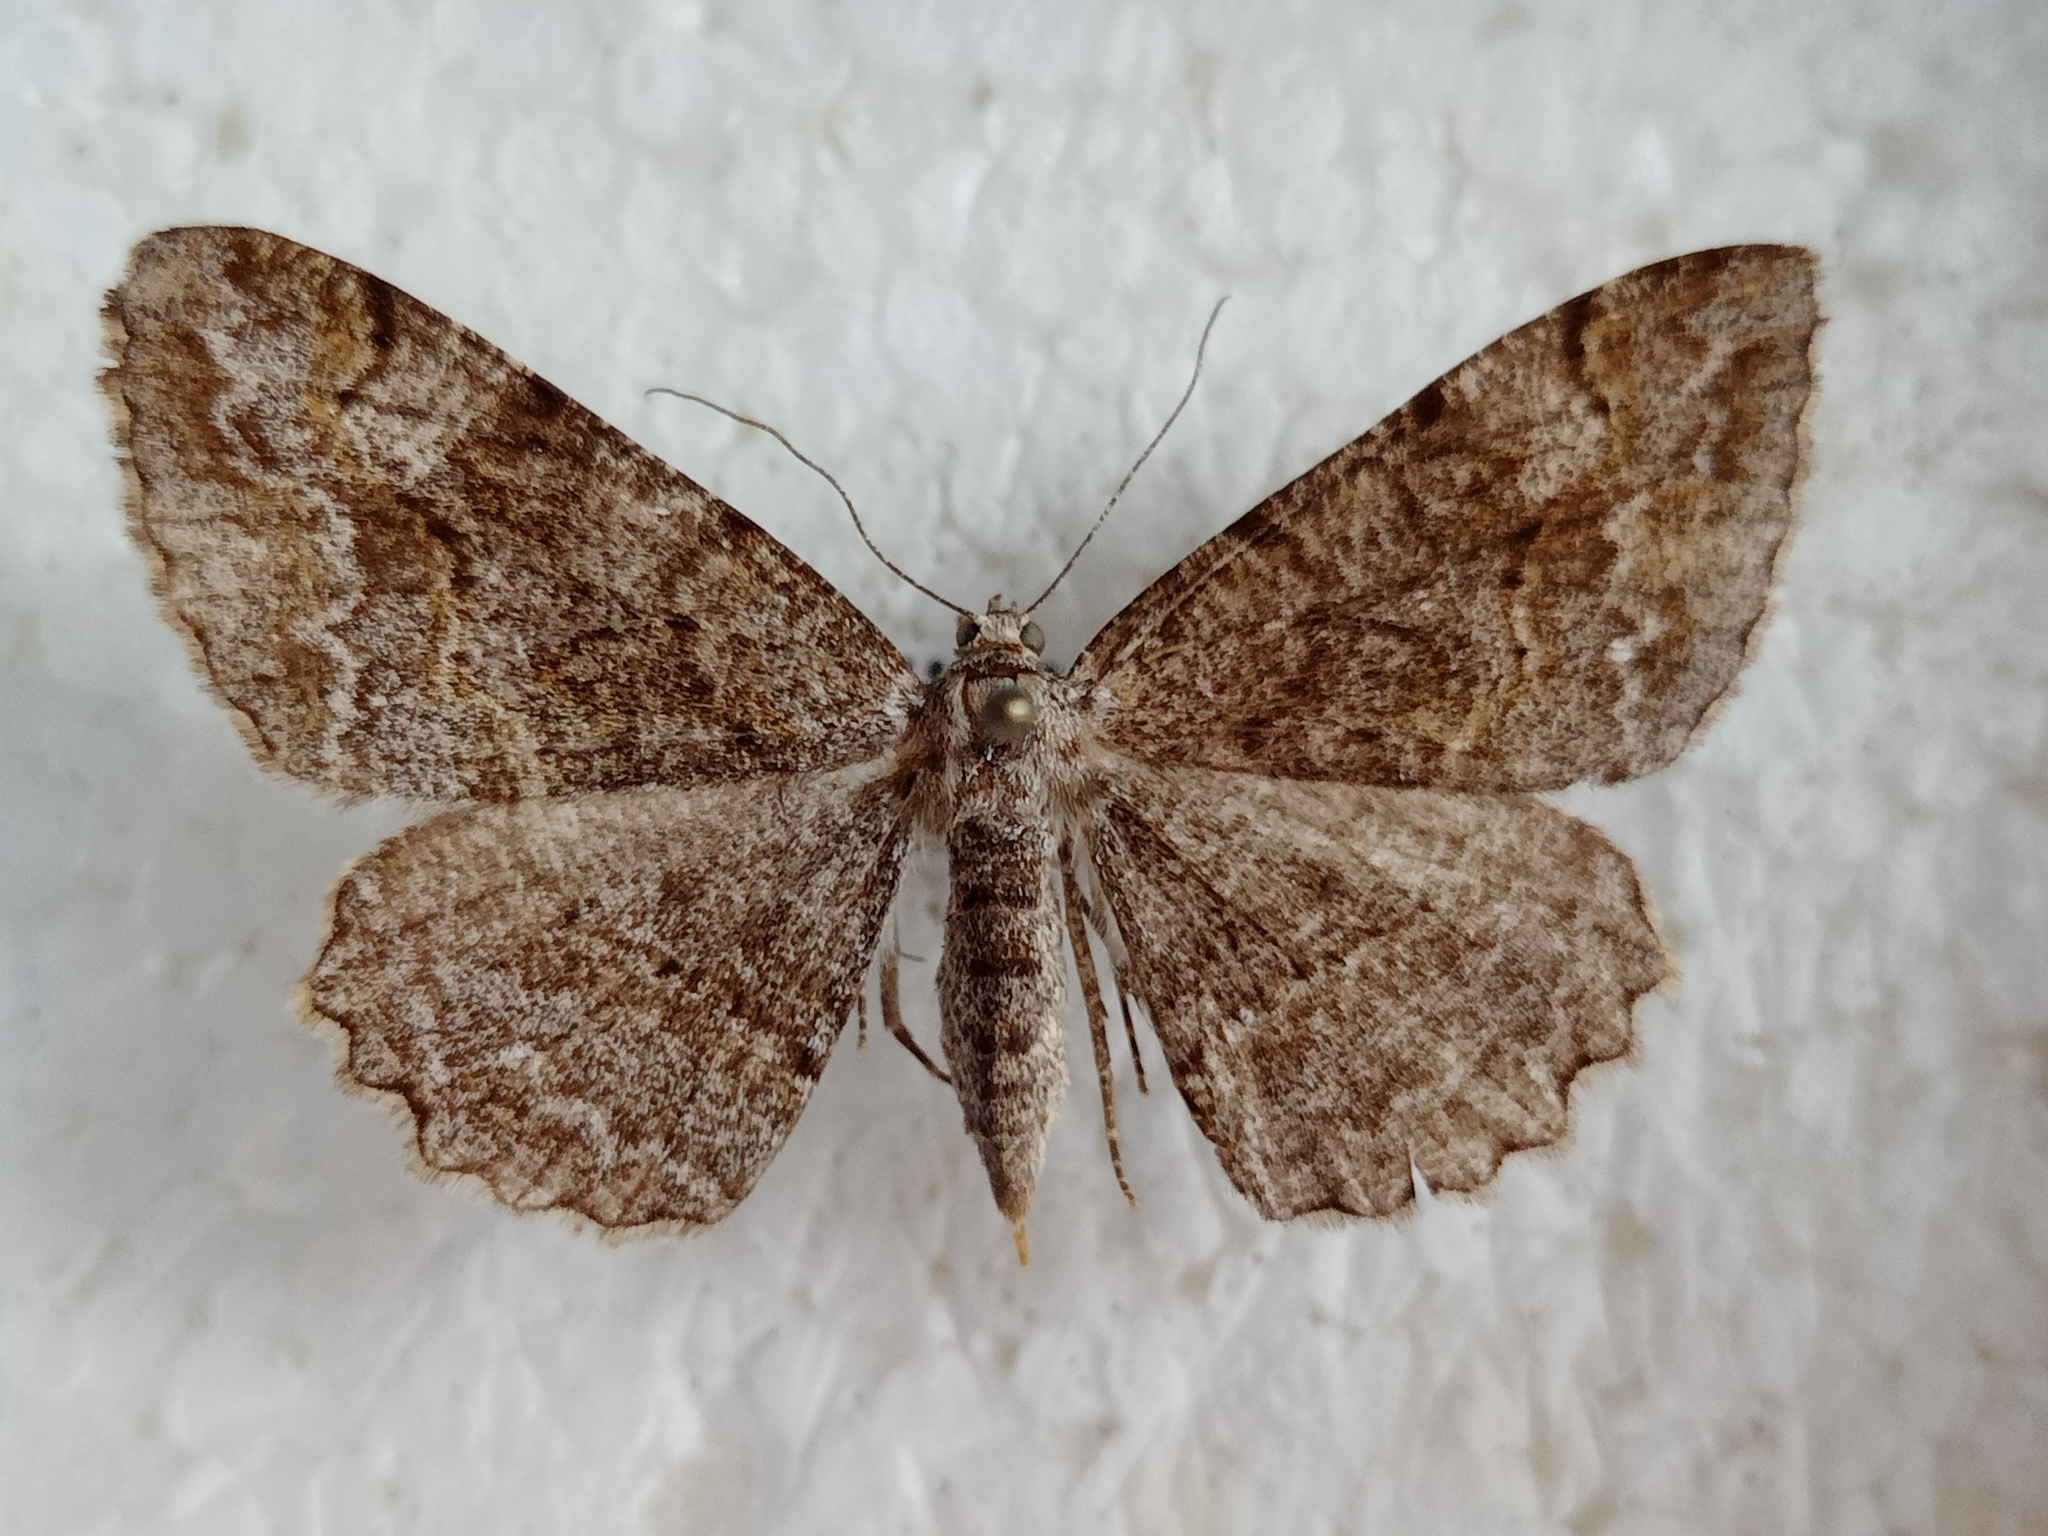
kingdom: Animalia
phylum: Arthropoda
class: Insecta
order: Lepidoptera
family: Geometridae
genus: Alcis
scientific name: Alcis repandata
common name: Mottled beauty
